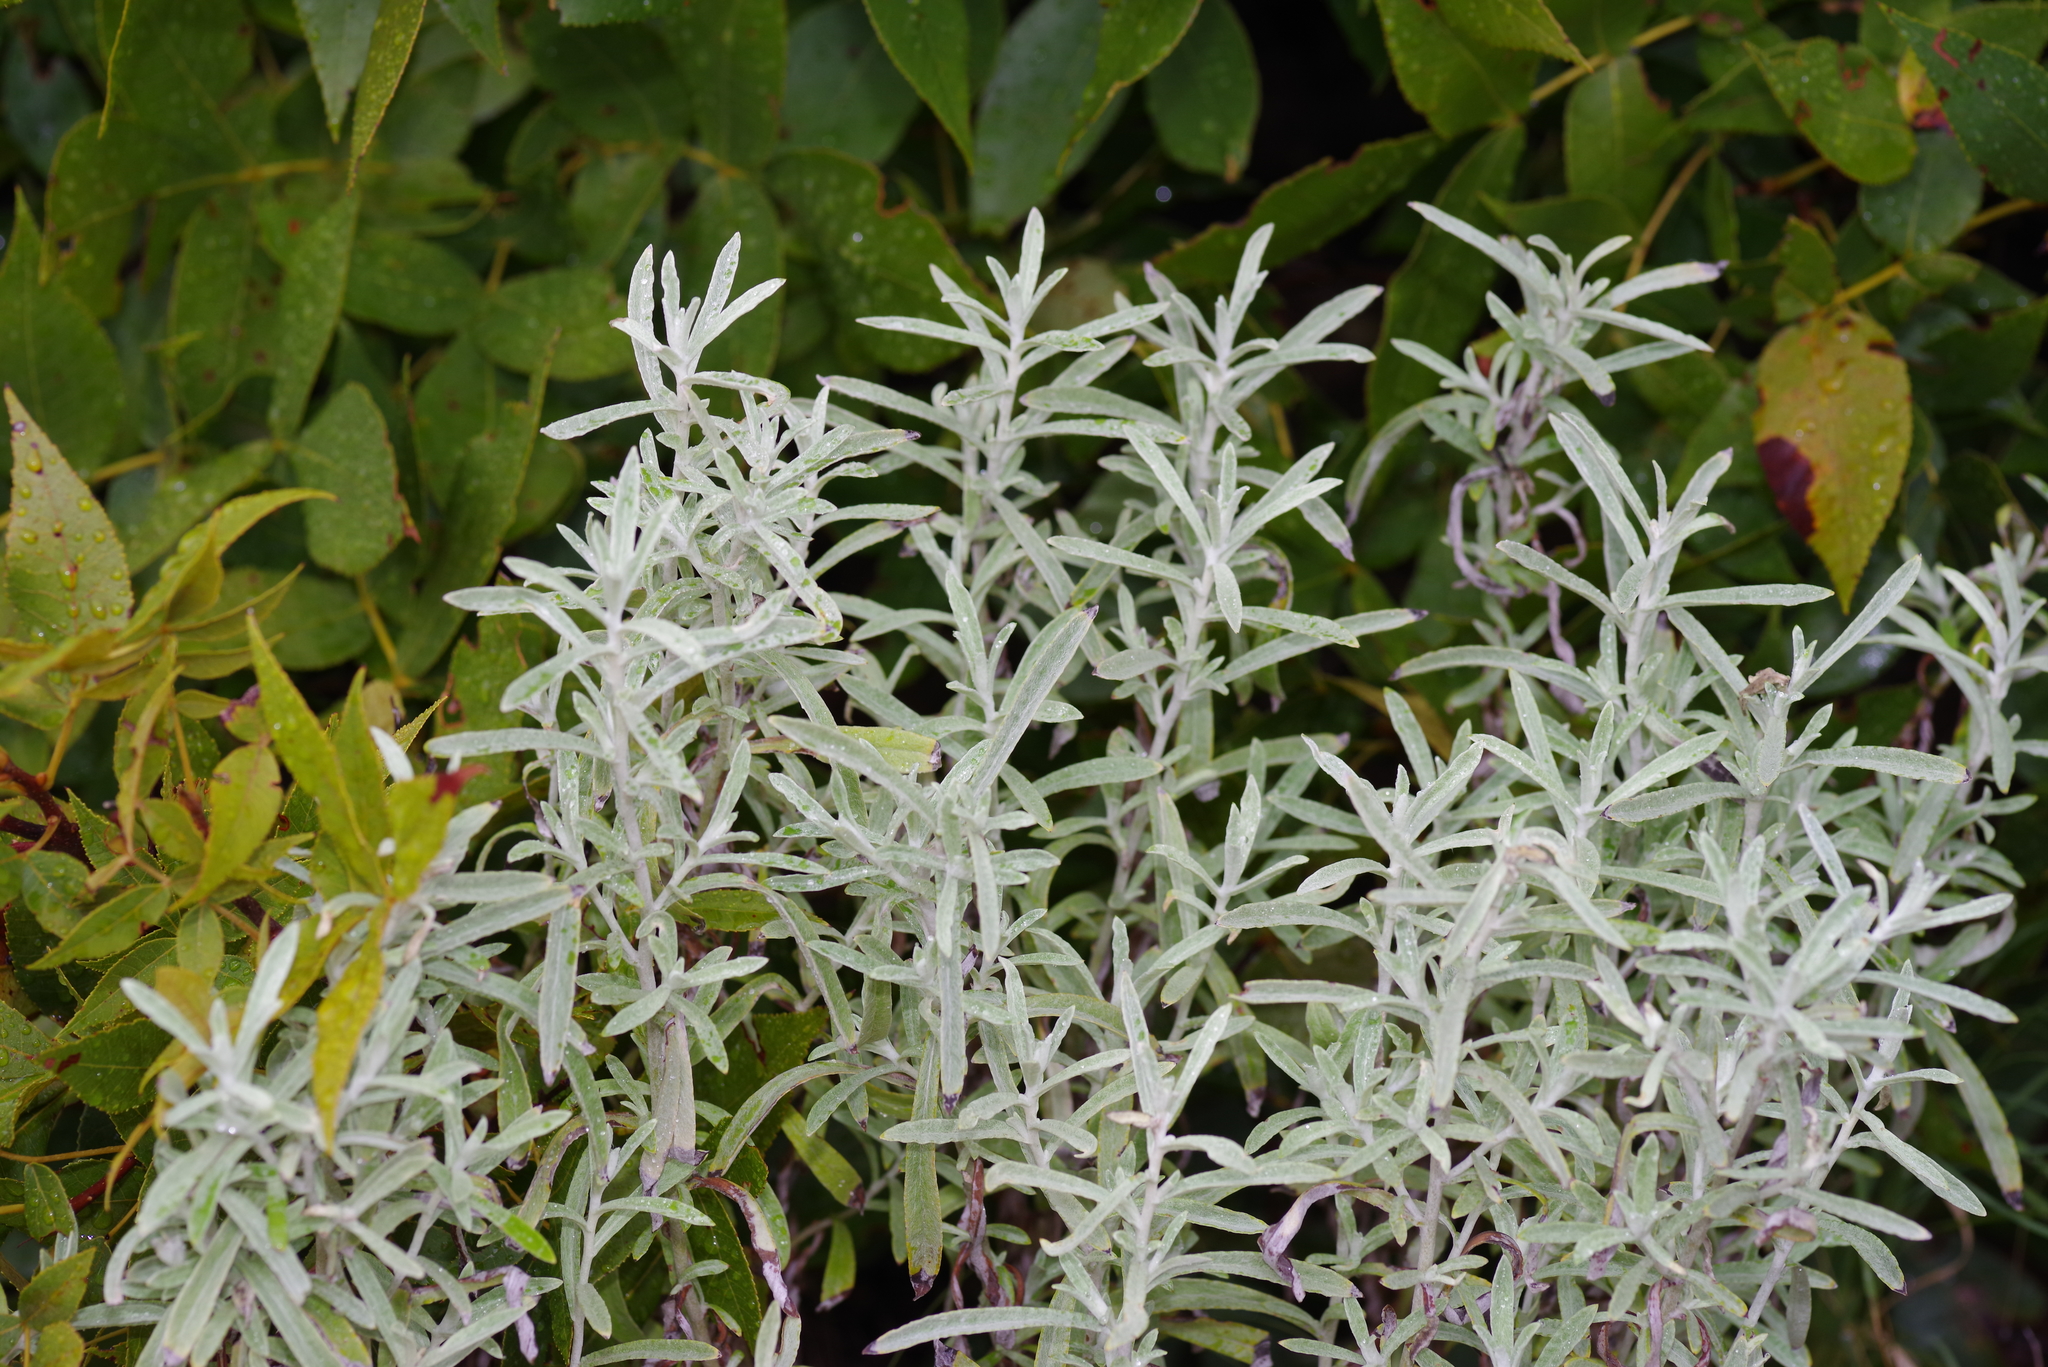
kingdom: Plantae
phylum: Tracheophyta
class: Magnoliopsida
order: Asterales
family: Asteraceae
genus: Artemisia
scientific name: Artemisia ludoviciana
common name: Western mugwort
